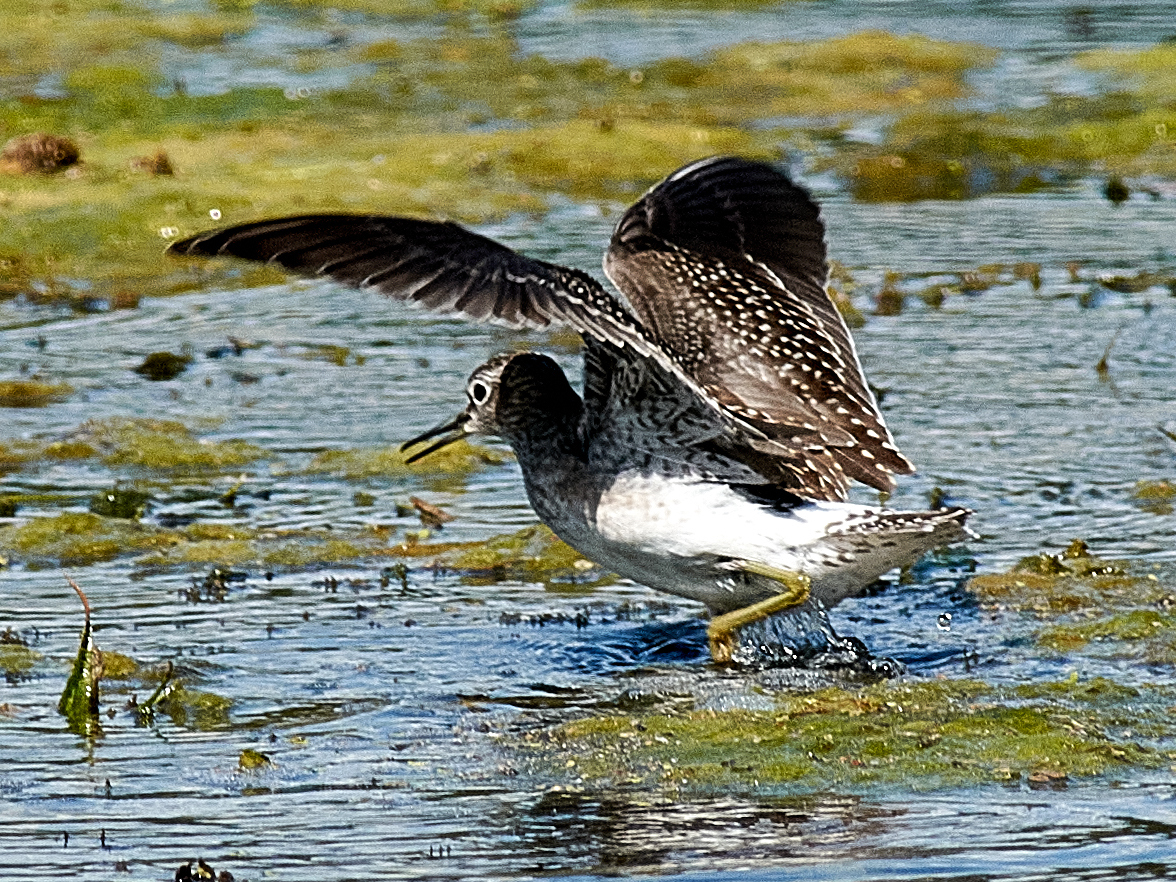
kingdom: Animalia
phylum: Chordata
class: Aves
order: Charadriiformes
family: Scolopacidae
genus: Tringa
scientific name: Tringa glareola
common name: Wood sandpiper
